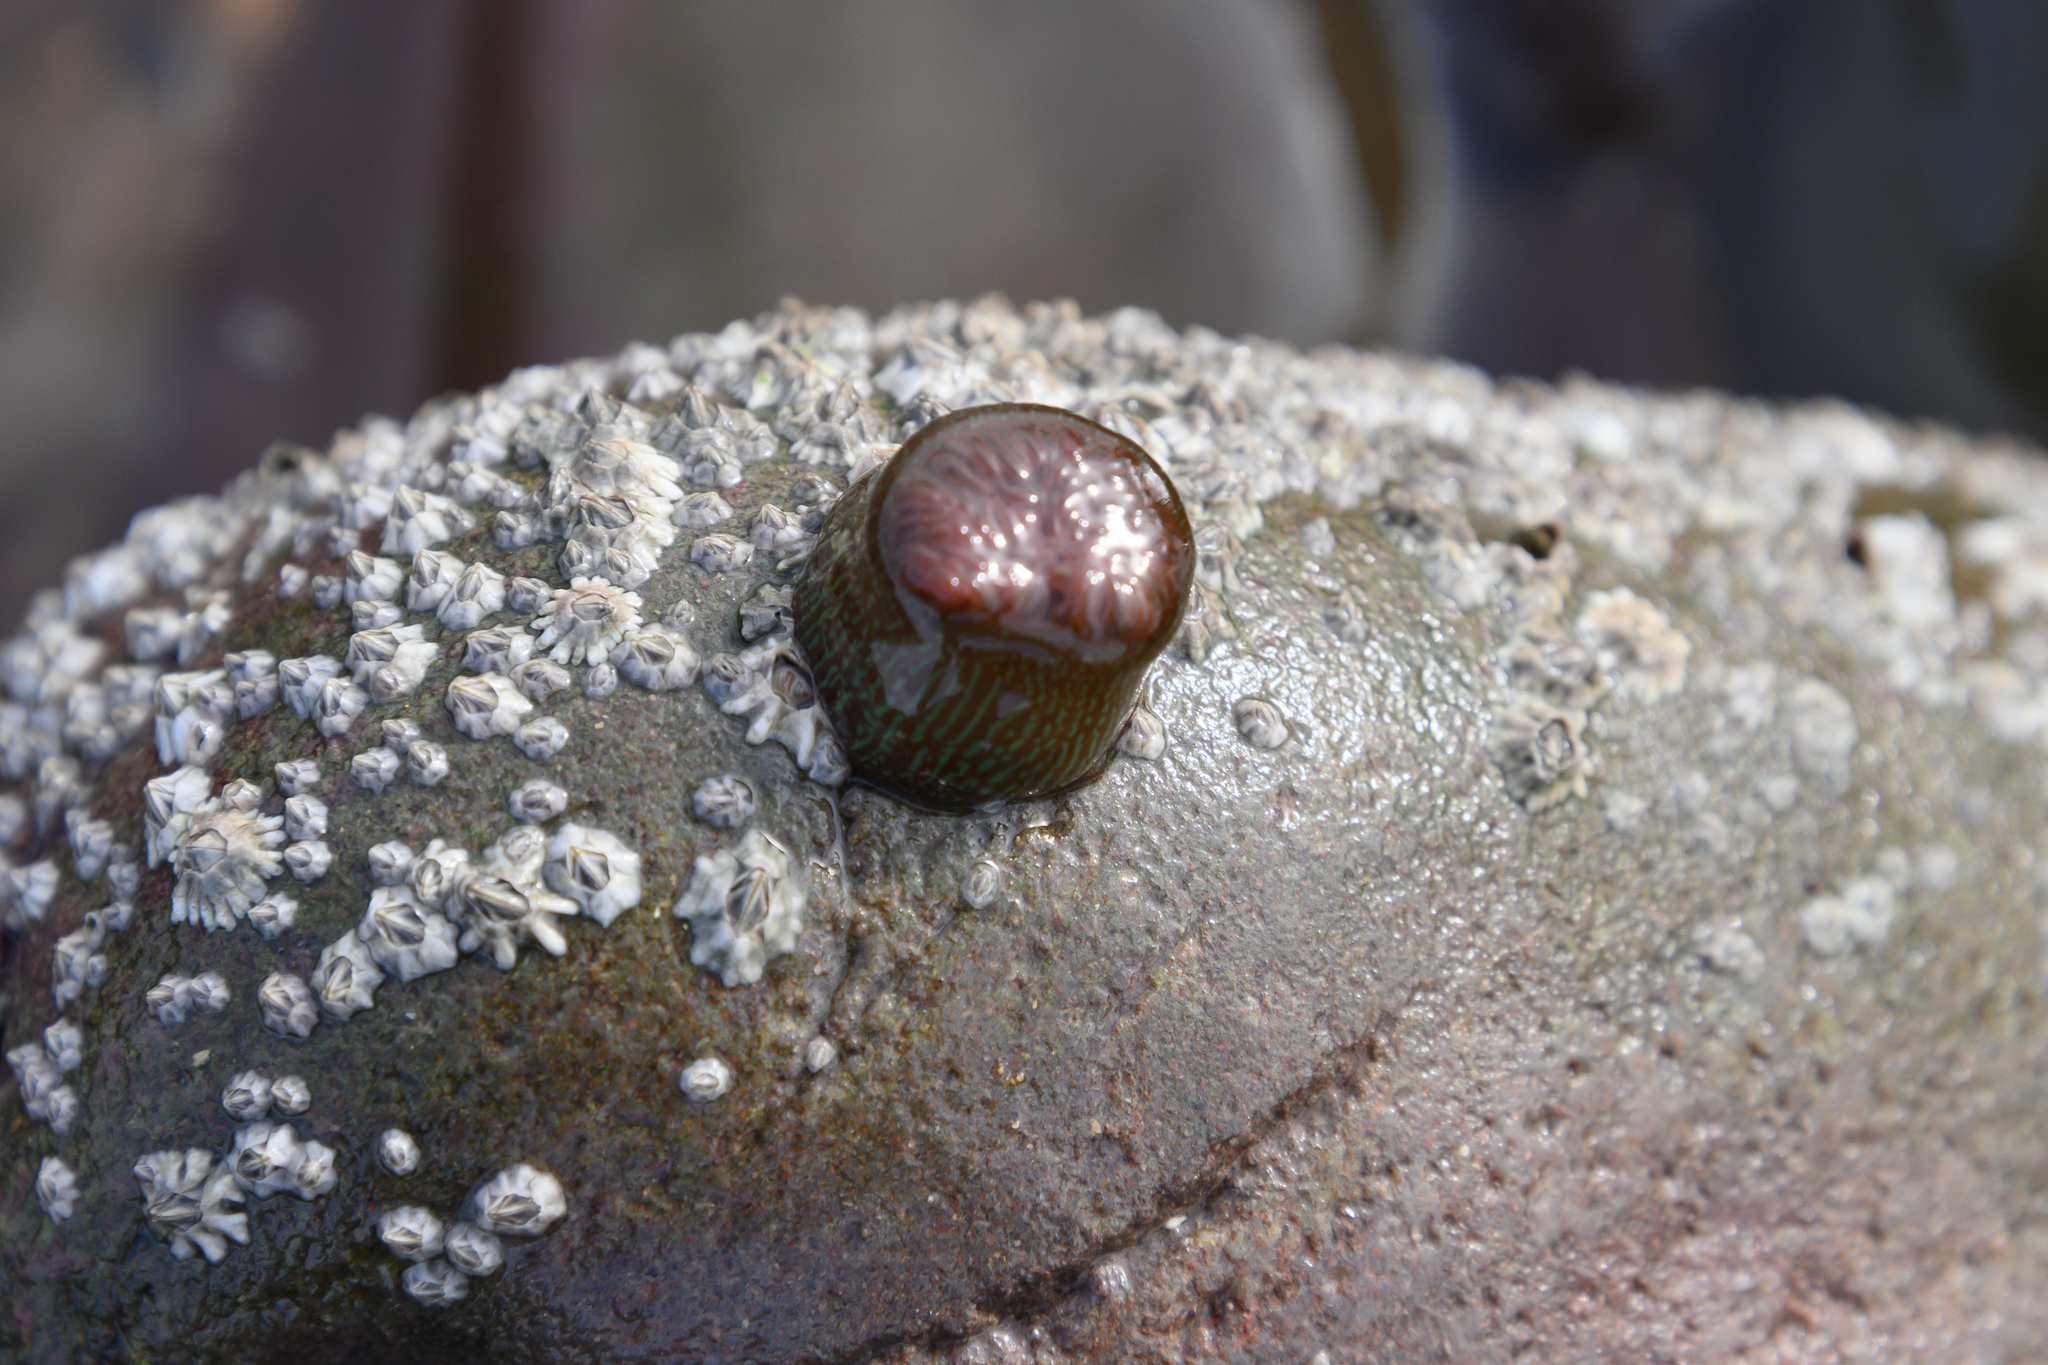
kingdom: Animalia
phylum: Cnidaria
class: Anthozoa
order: Actiniaria
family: Actiniidae
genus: Actinia
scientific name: Actinia equina
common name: Beadlet anemone
